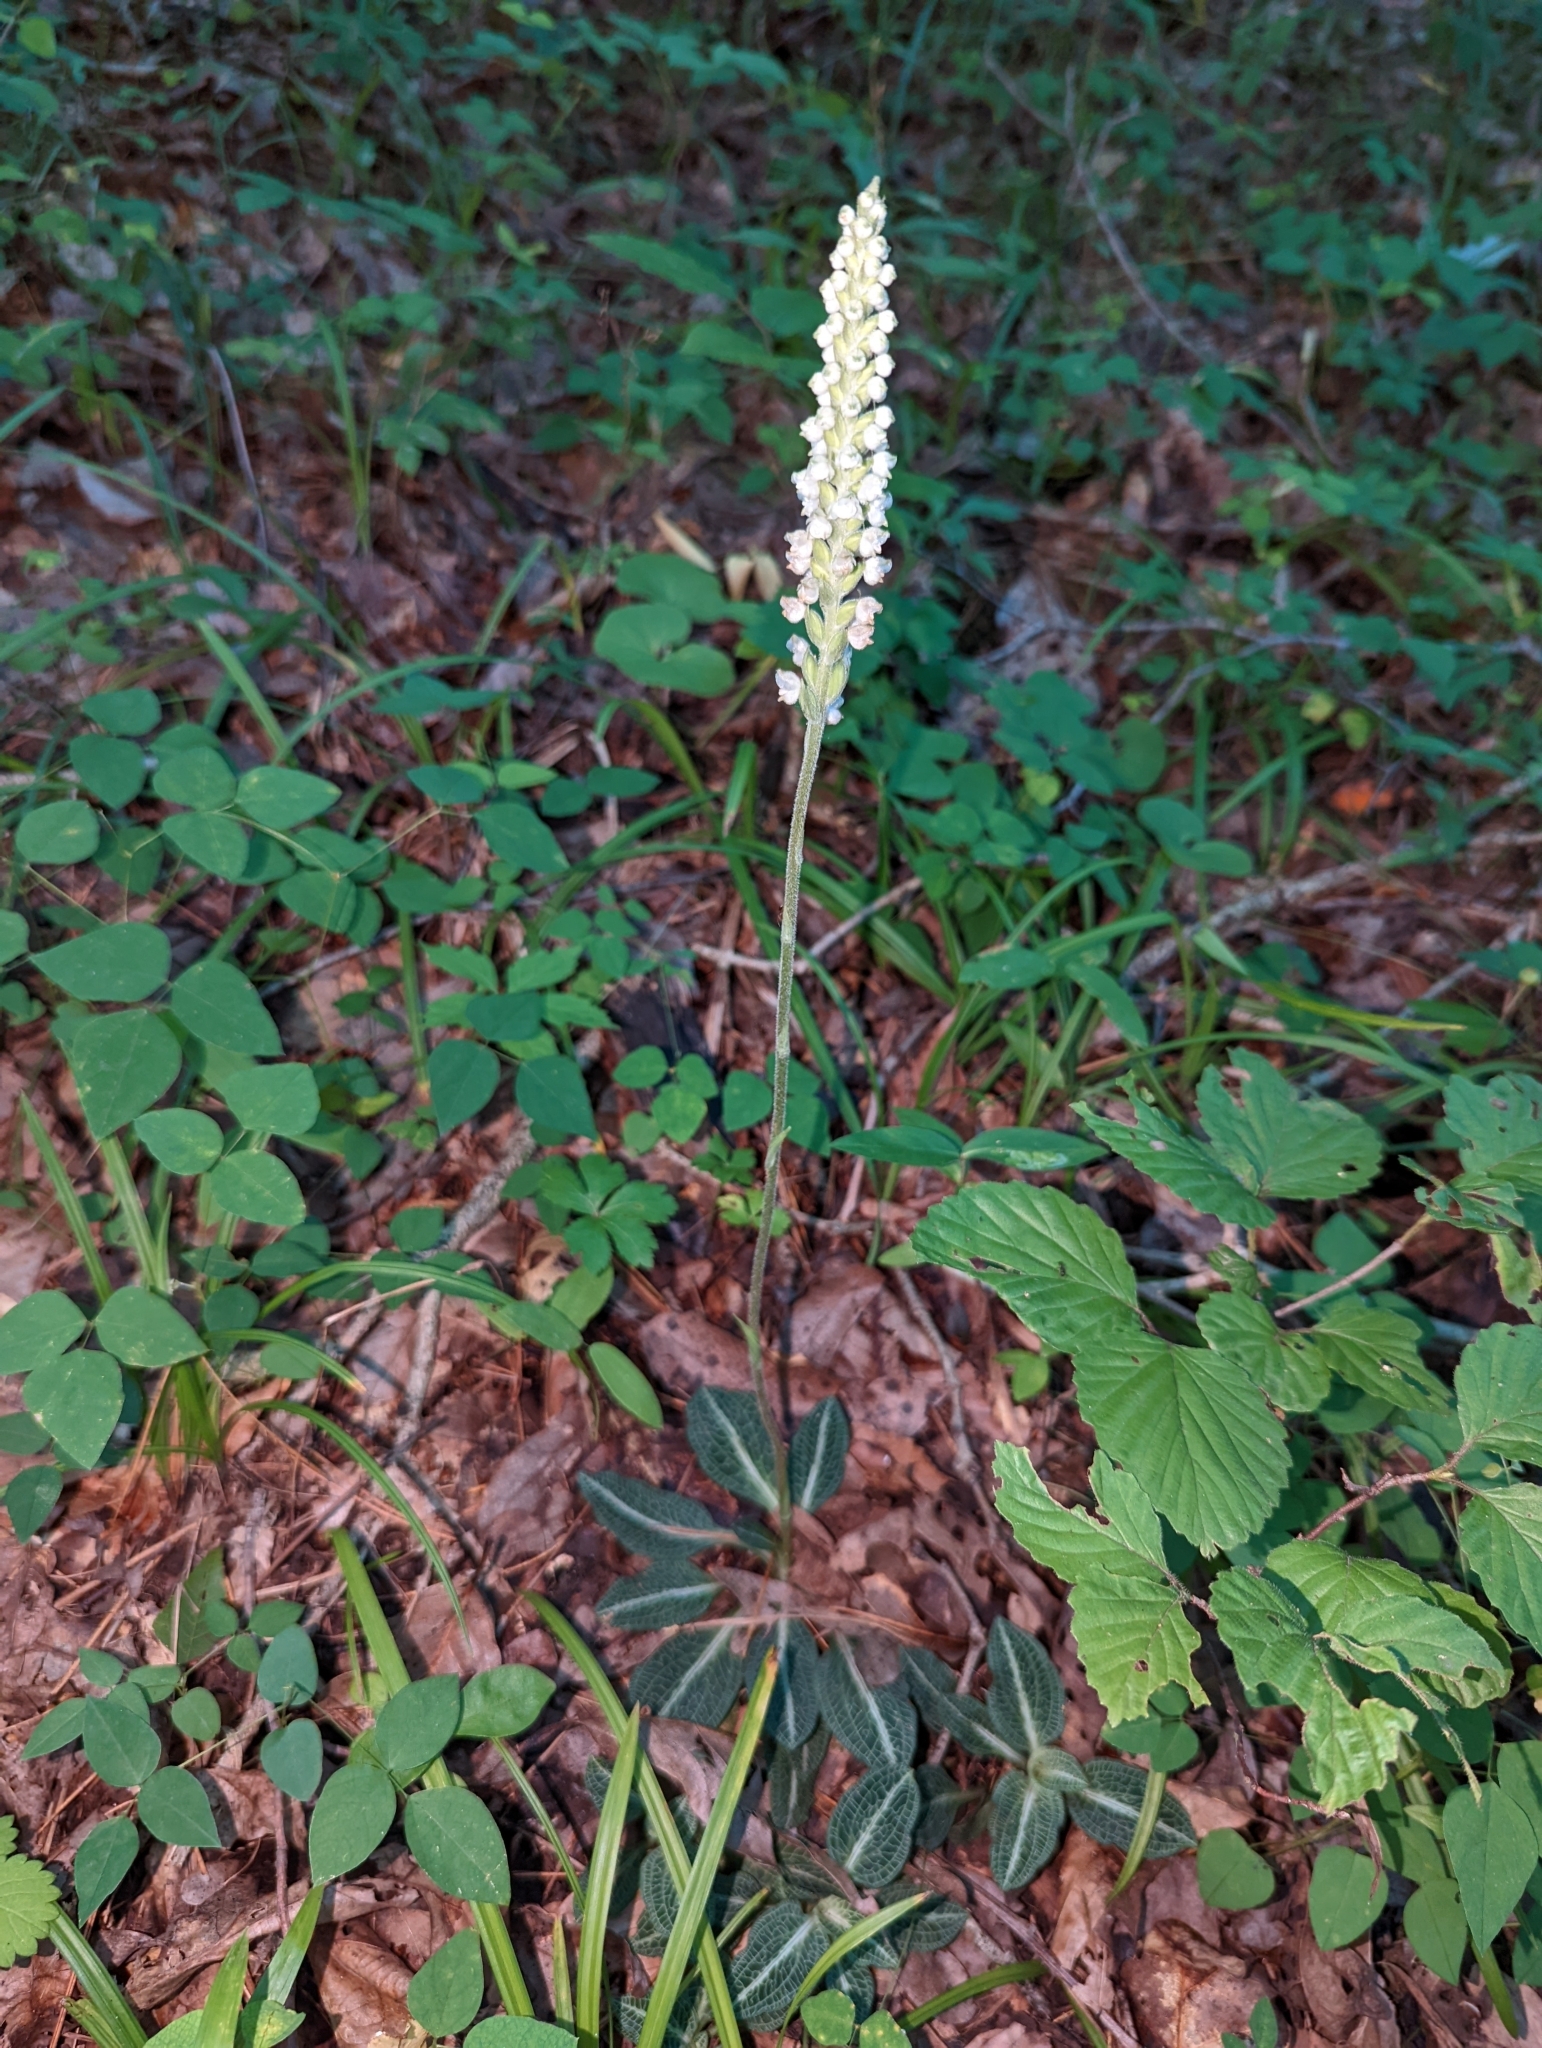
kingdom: Plantae
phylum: Tracheophyta
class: Liliopsida
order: Asparagales
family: Orchidaceae
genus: Goodyera
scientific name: Goodyera pubescens
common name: Downy rattlesnake-plantain
